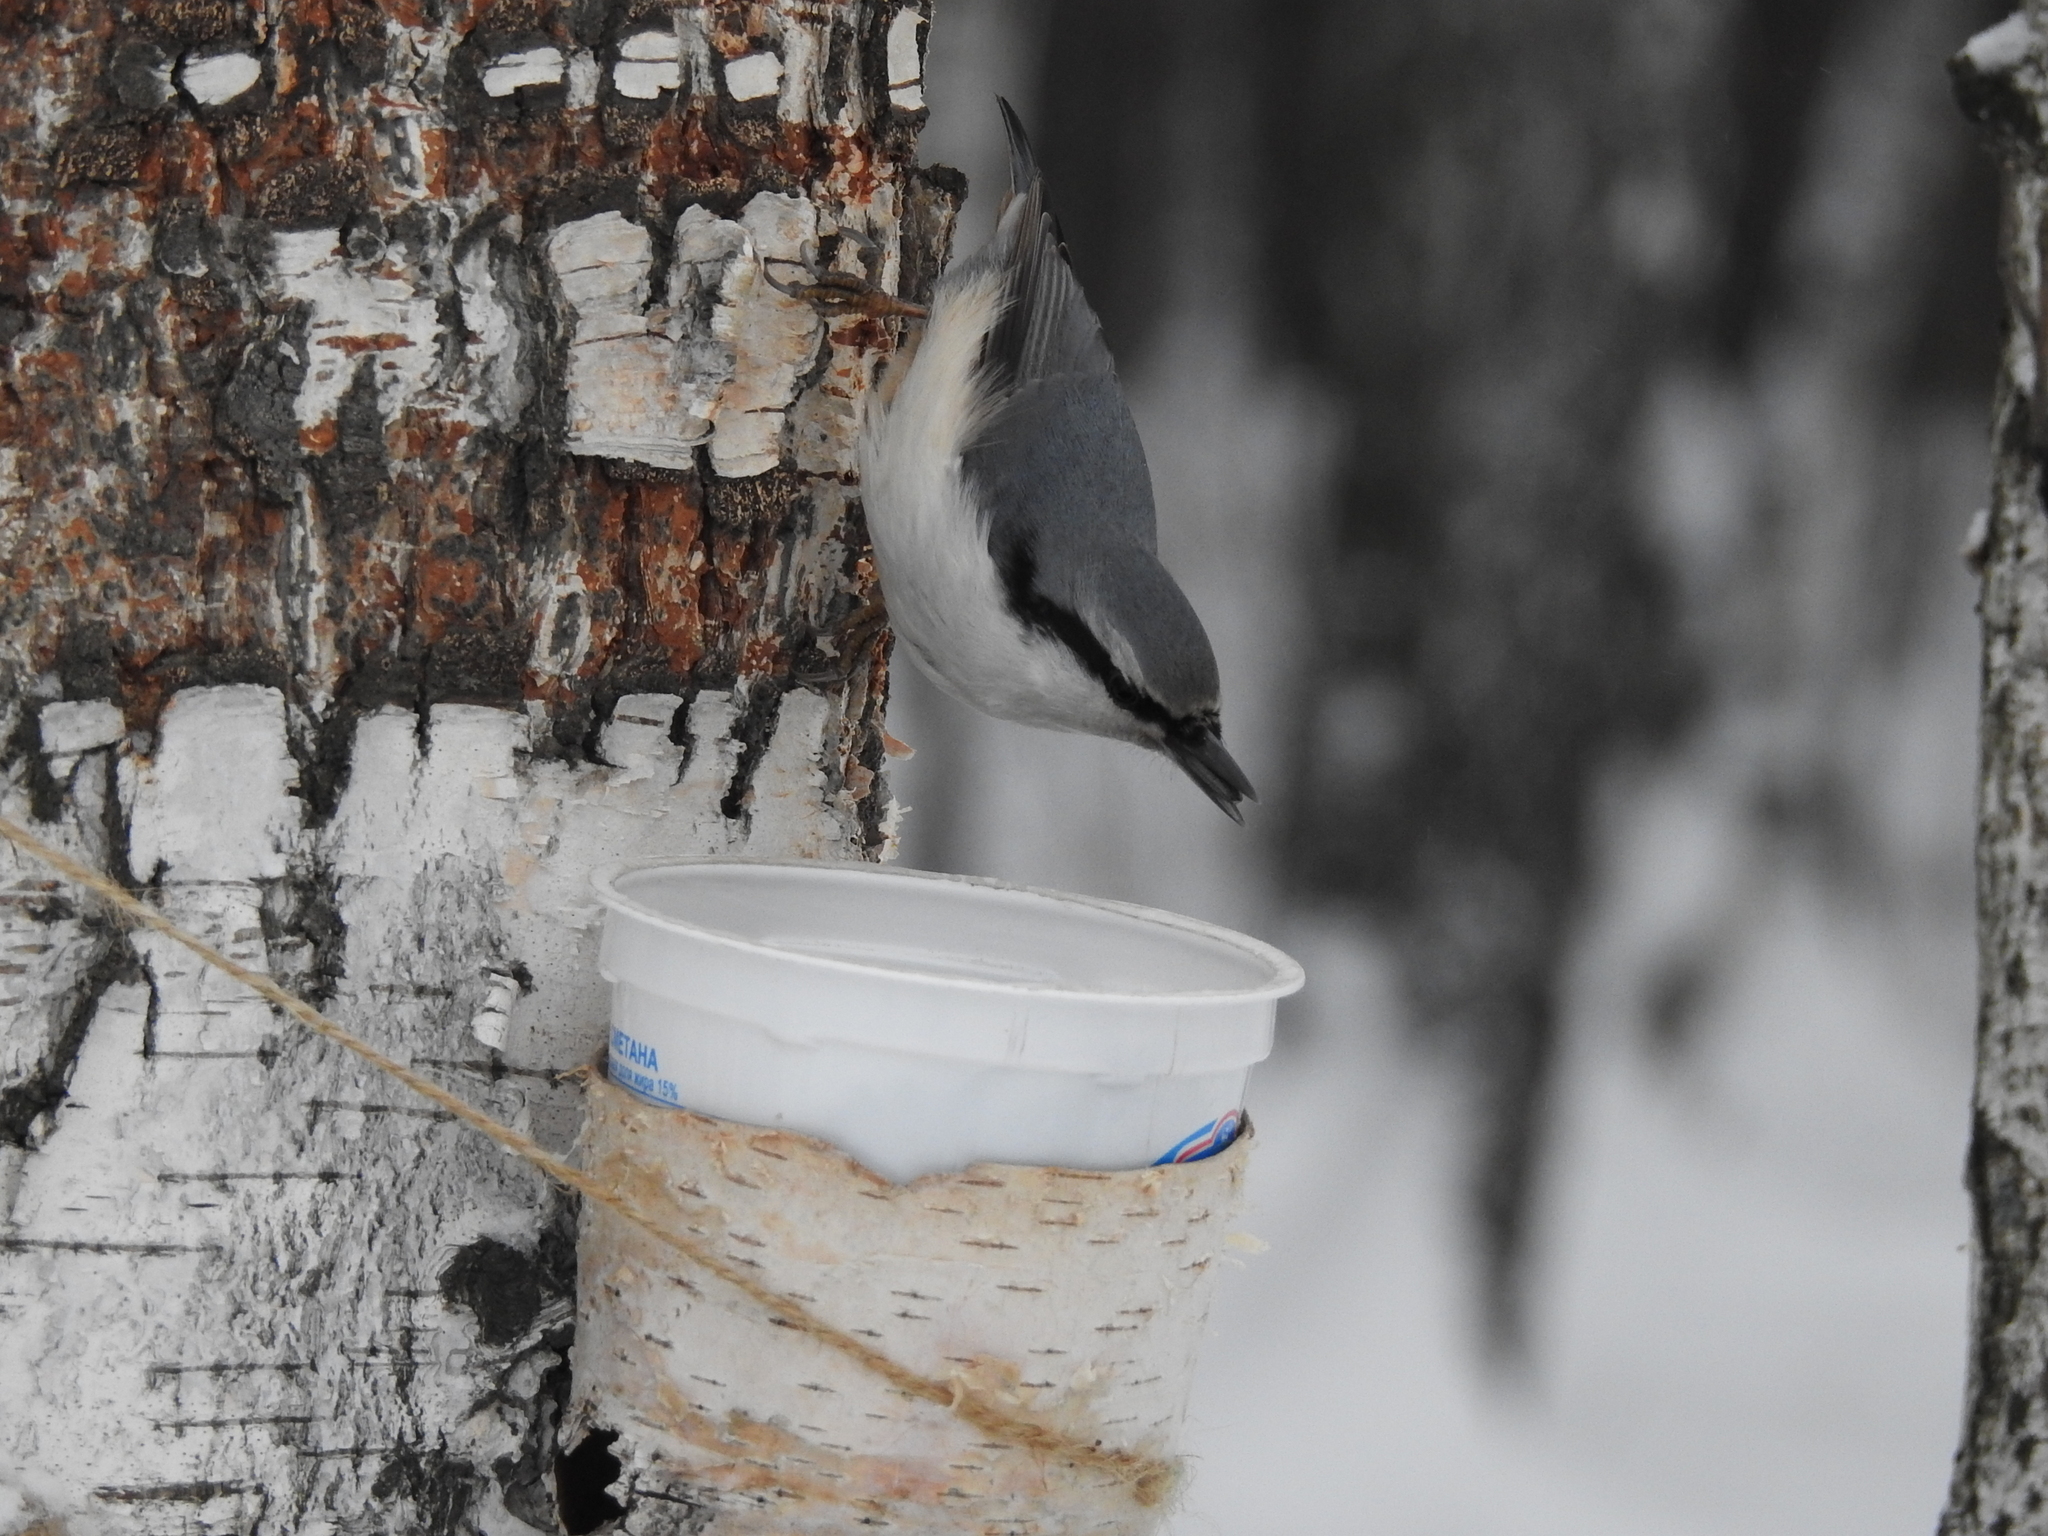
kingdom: Animalia
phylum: Chordata
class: Aves
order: Passeriformes
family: Sittidae
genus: Sitta
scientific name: Sitta europaea
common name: Eurasian nuthatch
